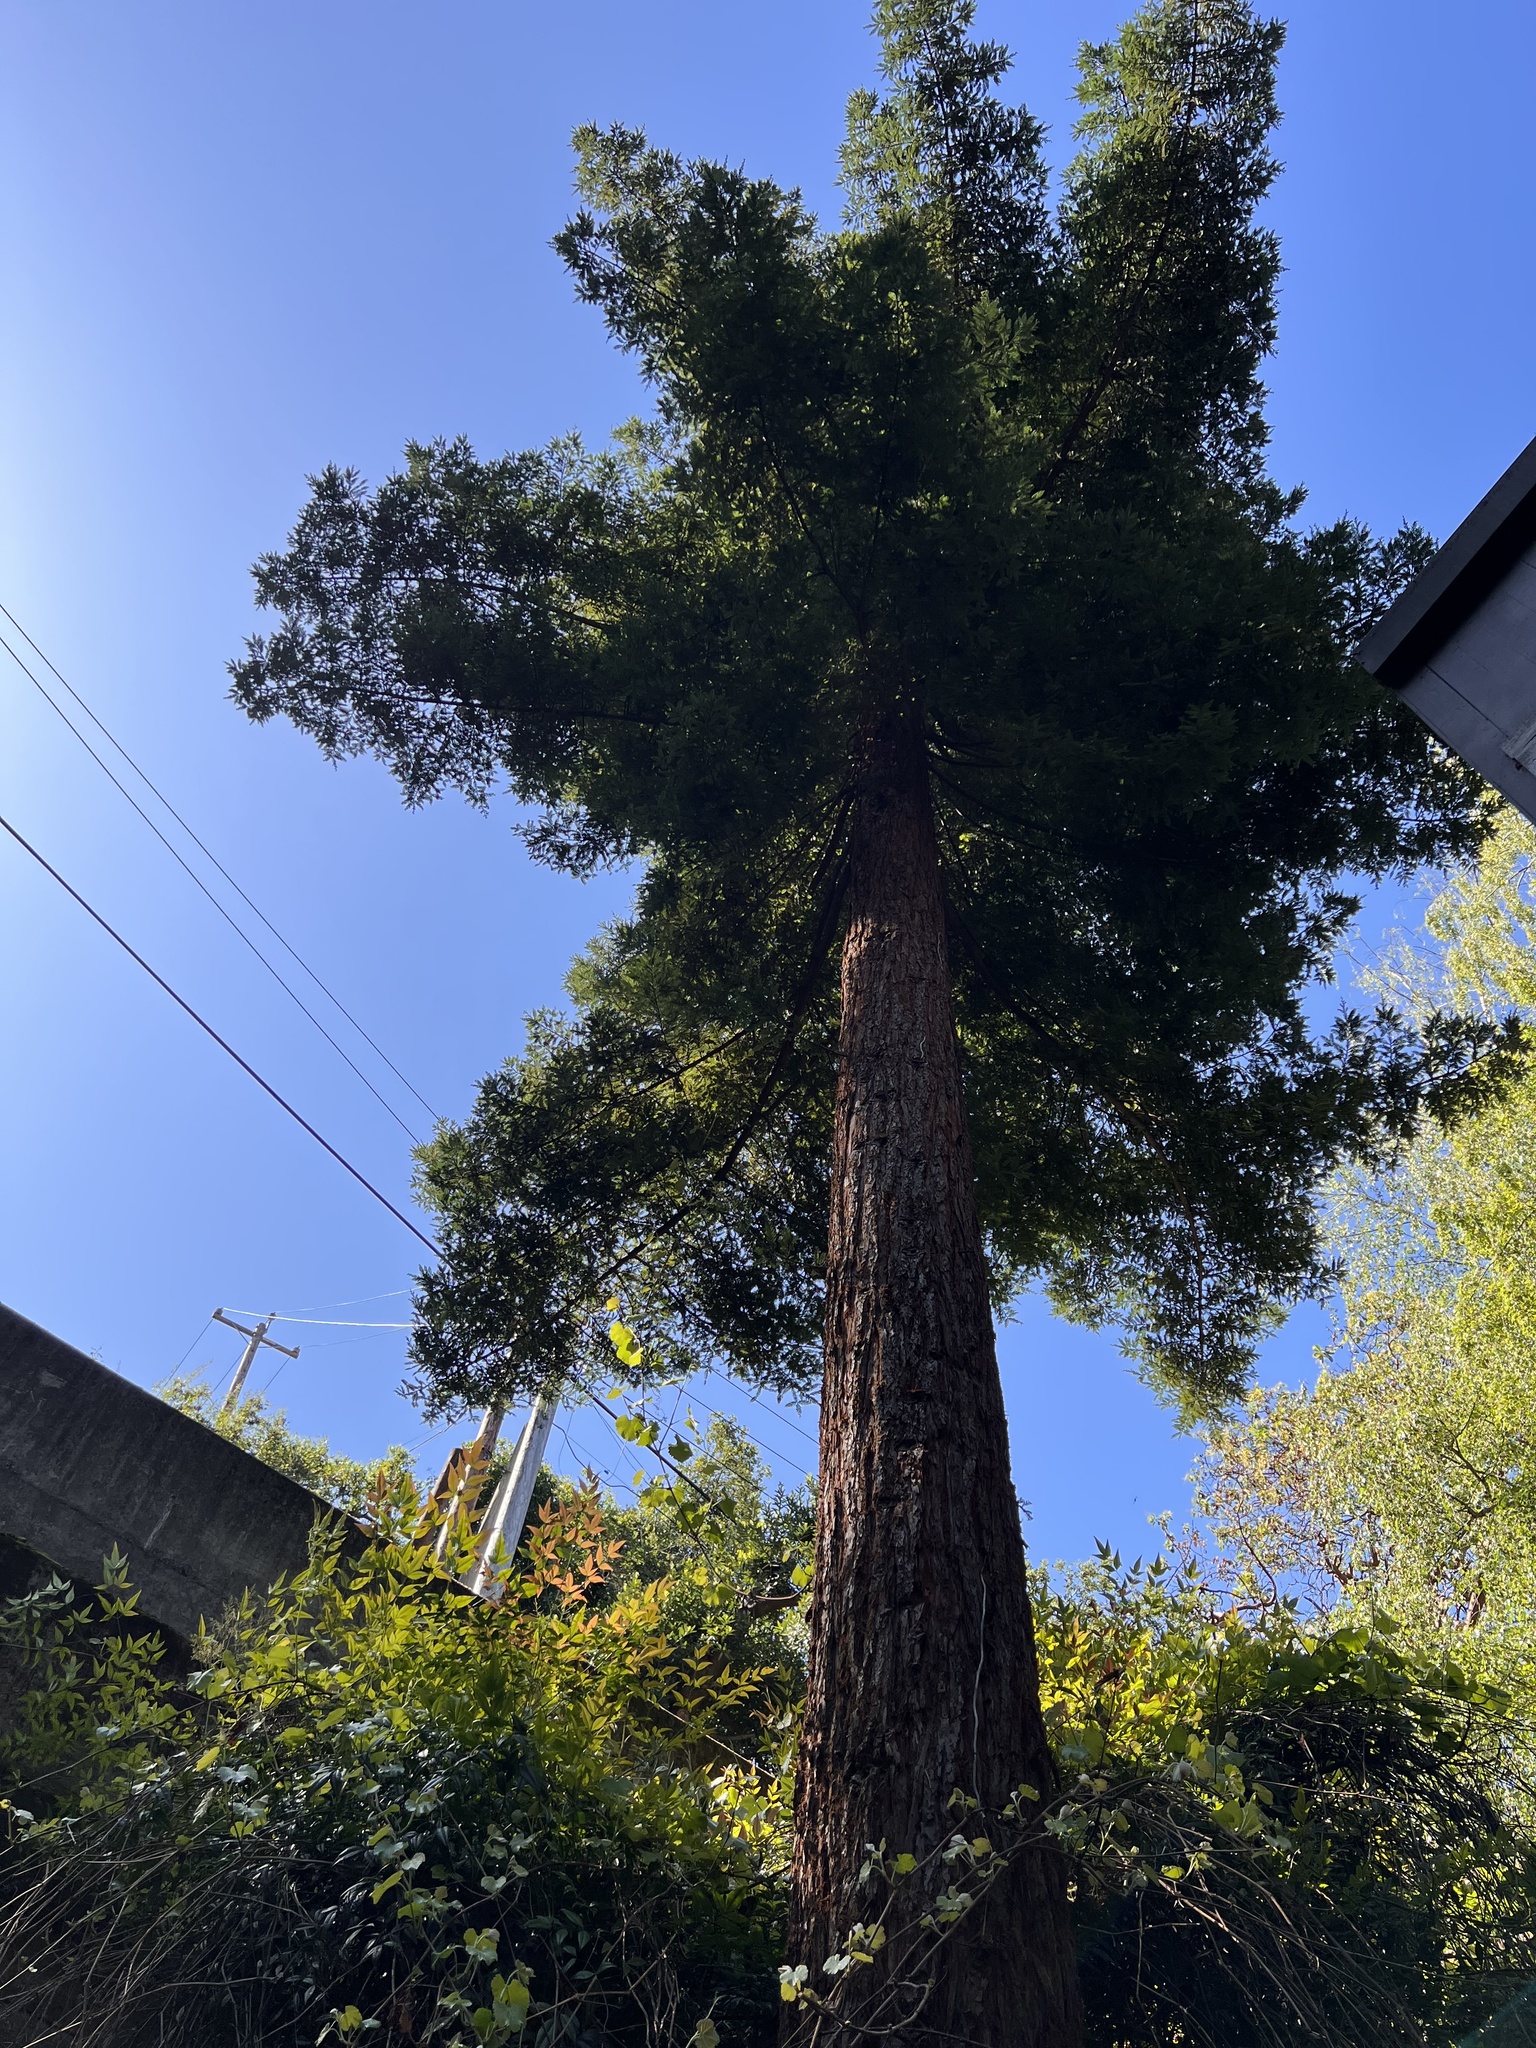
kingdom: Plantae
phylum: Tracheophyta
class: Pinopsida
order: Pinales
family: Cupressaceae
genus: Sequoia
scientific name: Sequoia sempervirens
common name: Coast redwood
